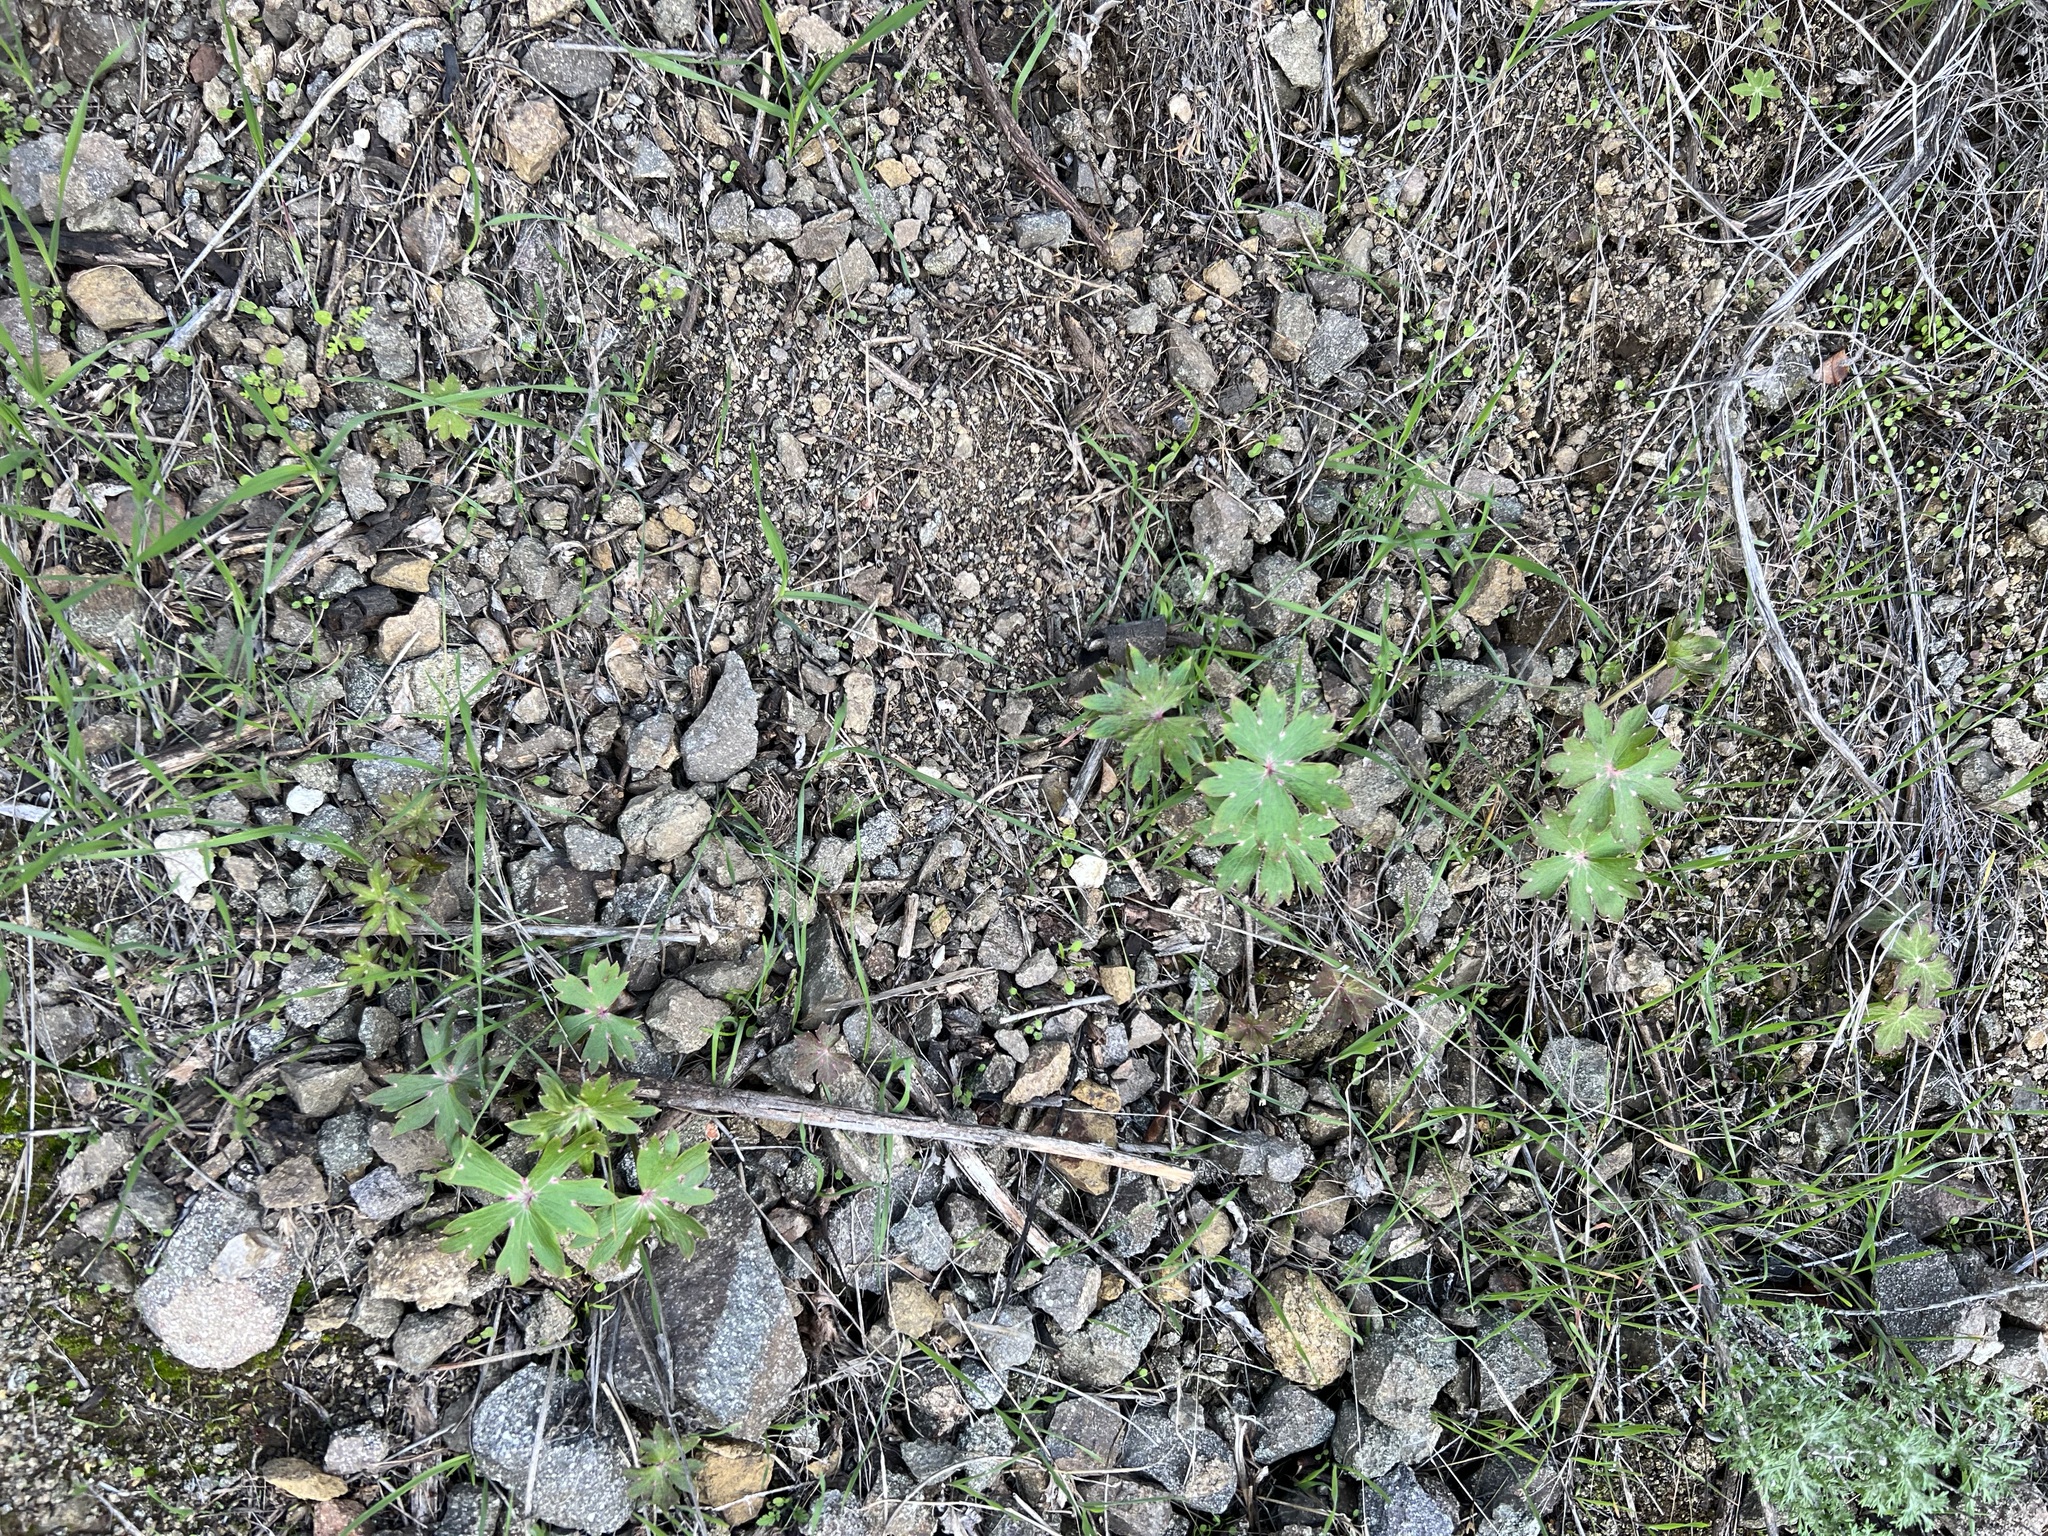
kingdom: Plantae
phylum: Tracheophyta
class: Magnoliopsida
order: Ranunculales
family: Ranunculaceae
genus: Delphinium
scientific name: Delphinium cardinale
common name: Scarlet larkspur
